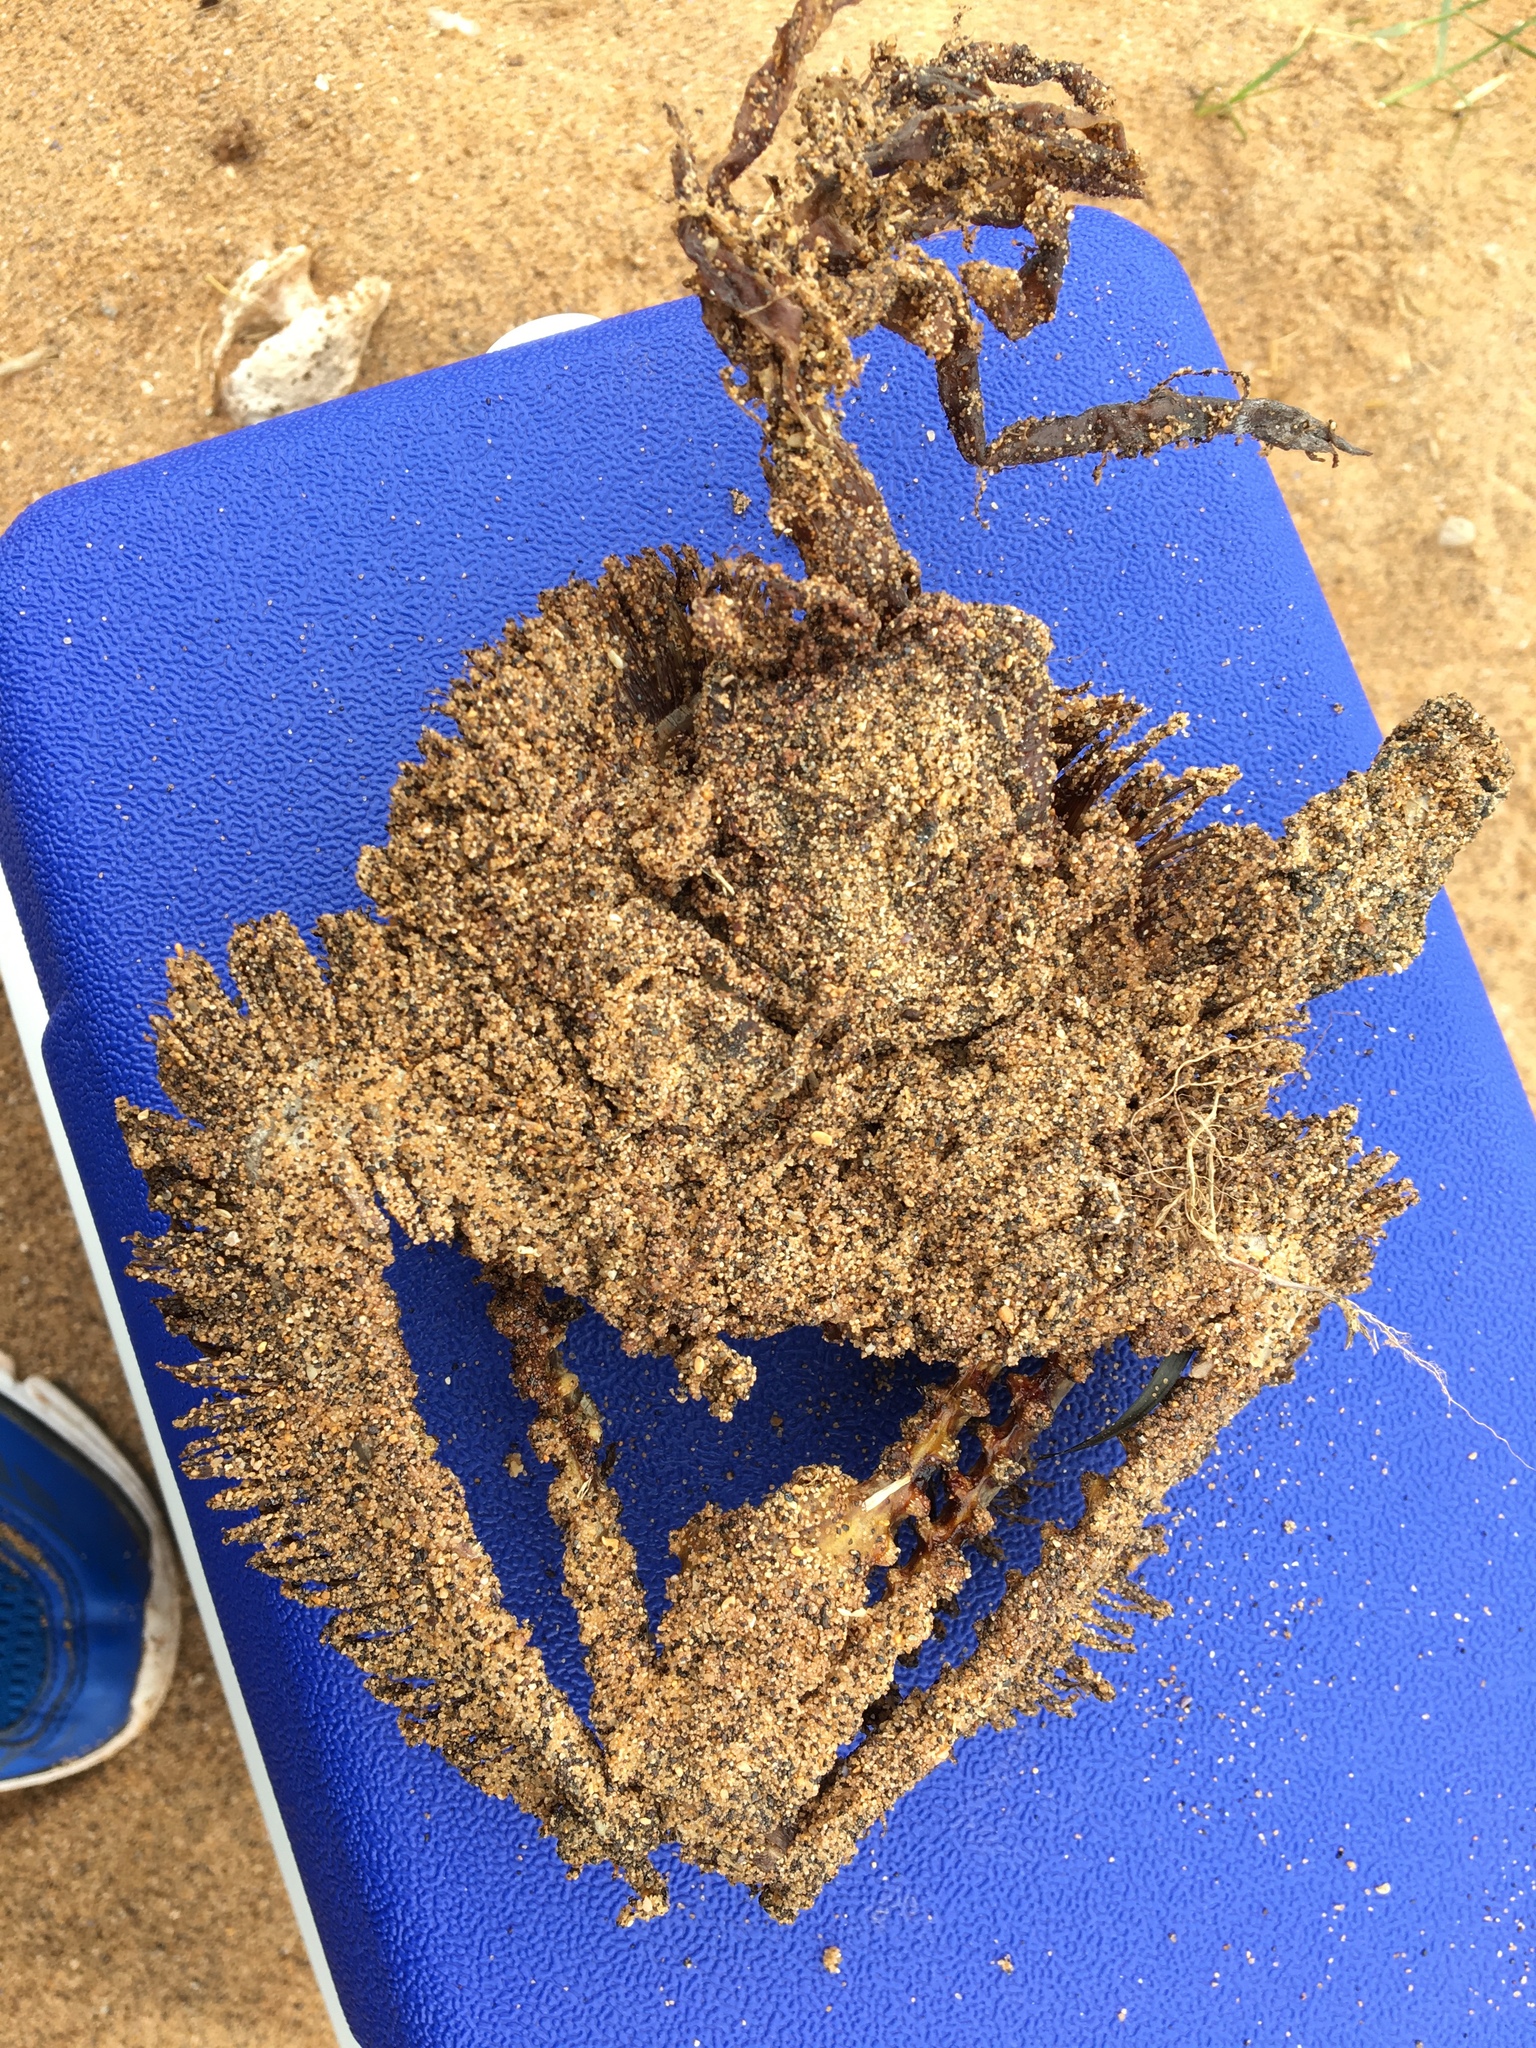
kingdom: Animalia
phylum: Chordata
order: Perciformes
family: Sciaenidae
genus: Argyrosomus
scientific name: Argyrosomus japonicus
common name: Japanese meagre
